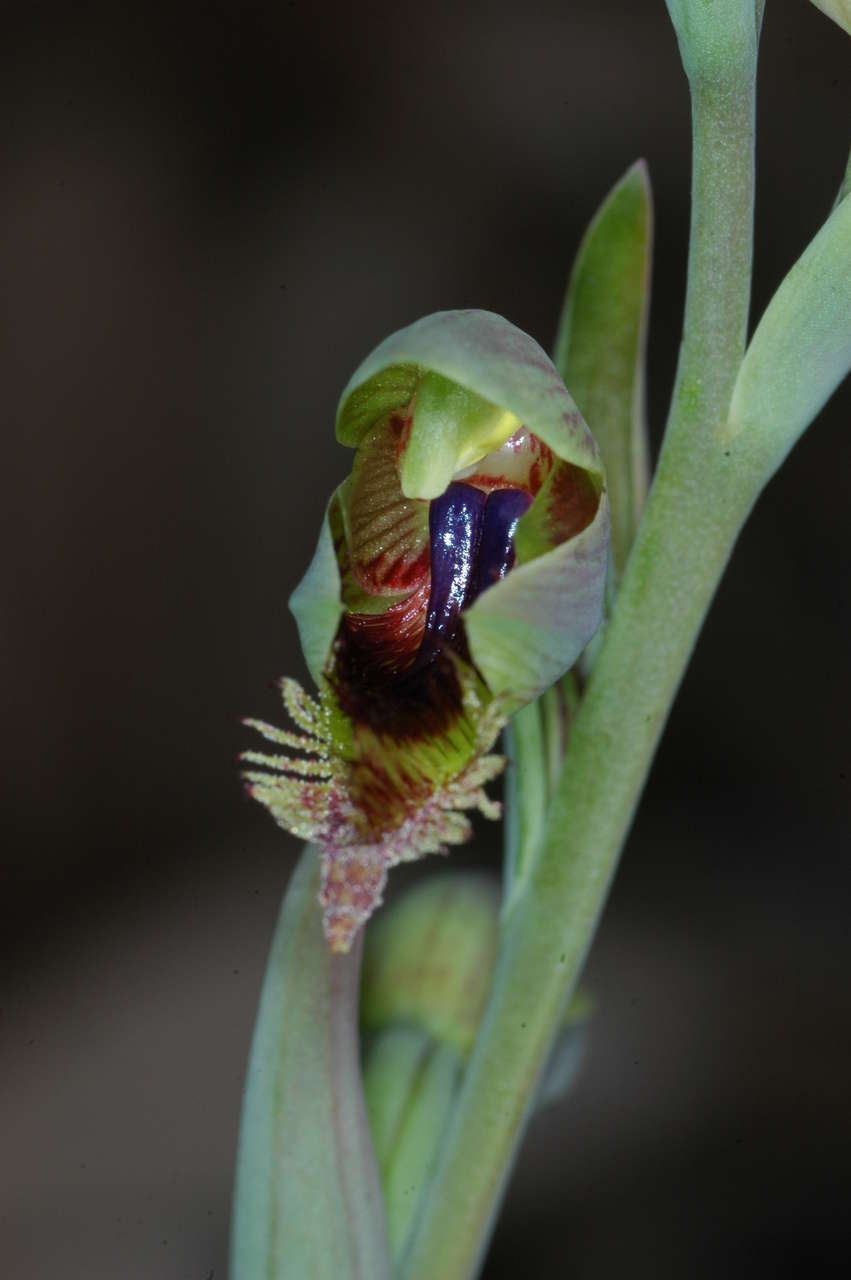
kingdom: Plantae
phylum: Tracheophyta
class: Liliopsida
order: Asparagales
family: Orchidaceae
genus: Calochilus
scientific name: Calochilus campestris
